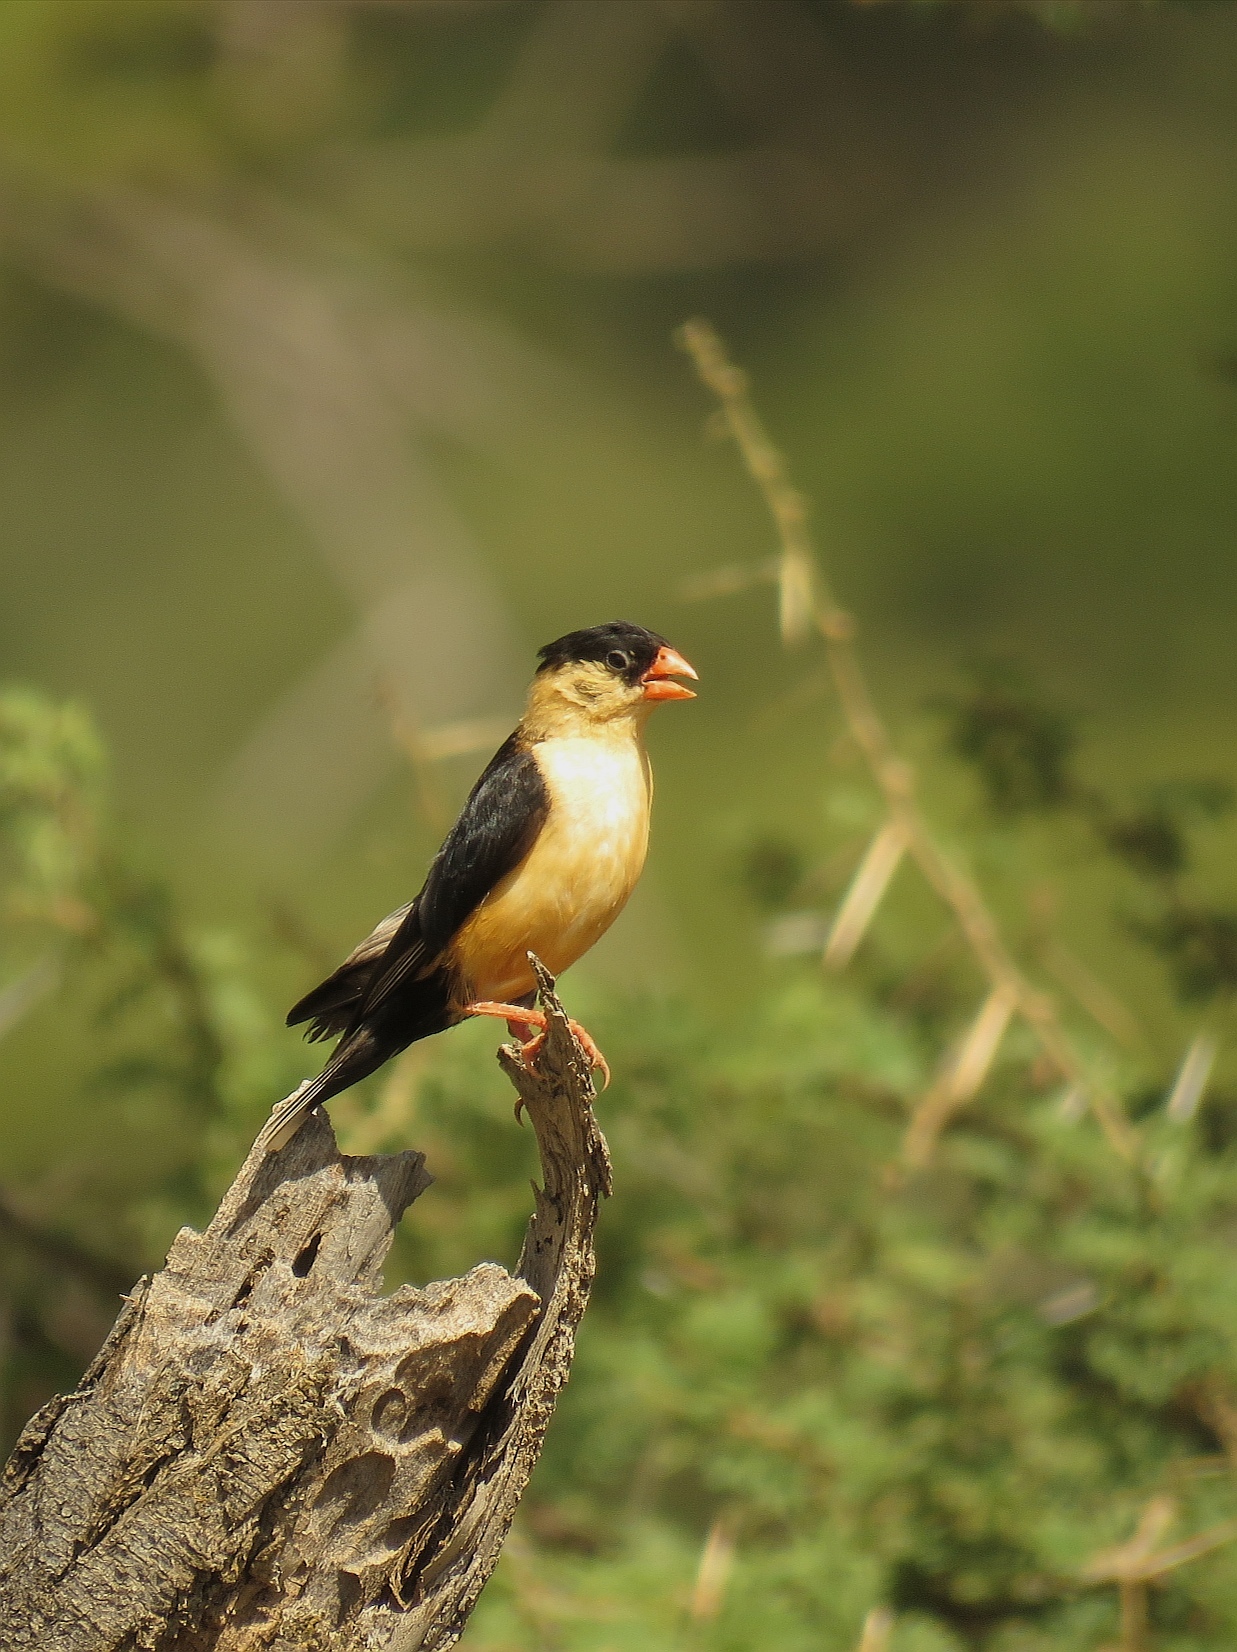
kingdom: Animalia
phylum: Chordata
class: Aves
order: Passeriformes
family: Viduidae
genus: Vidua
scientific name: Vidua regia
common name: Shaft-tailed whydah
